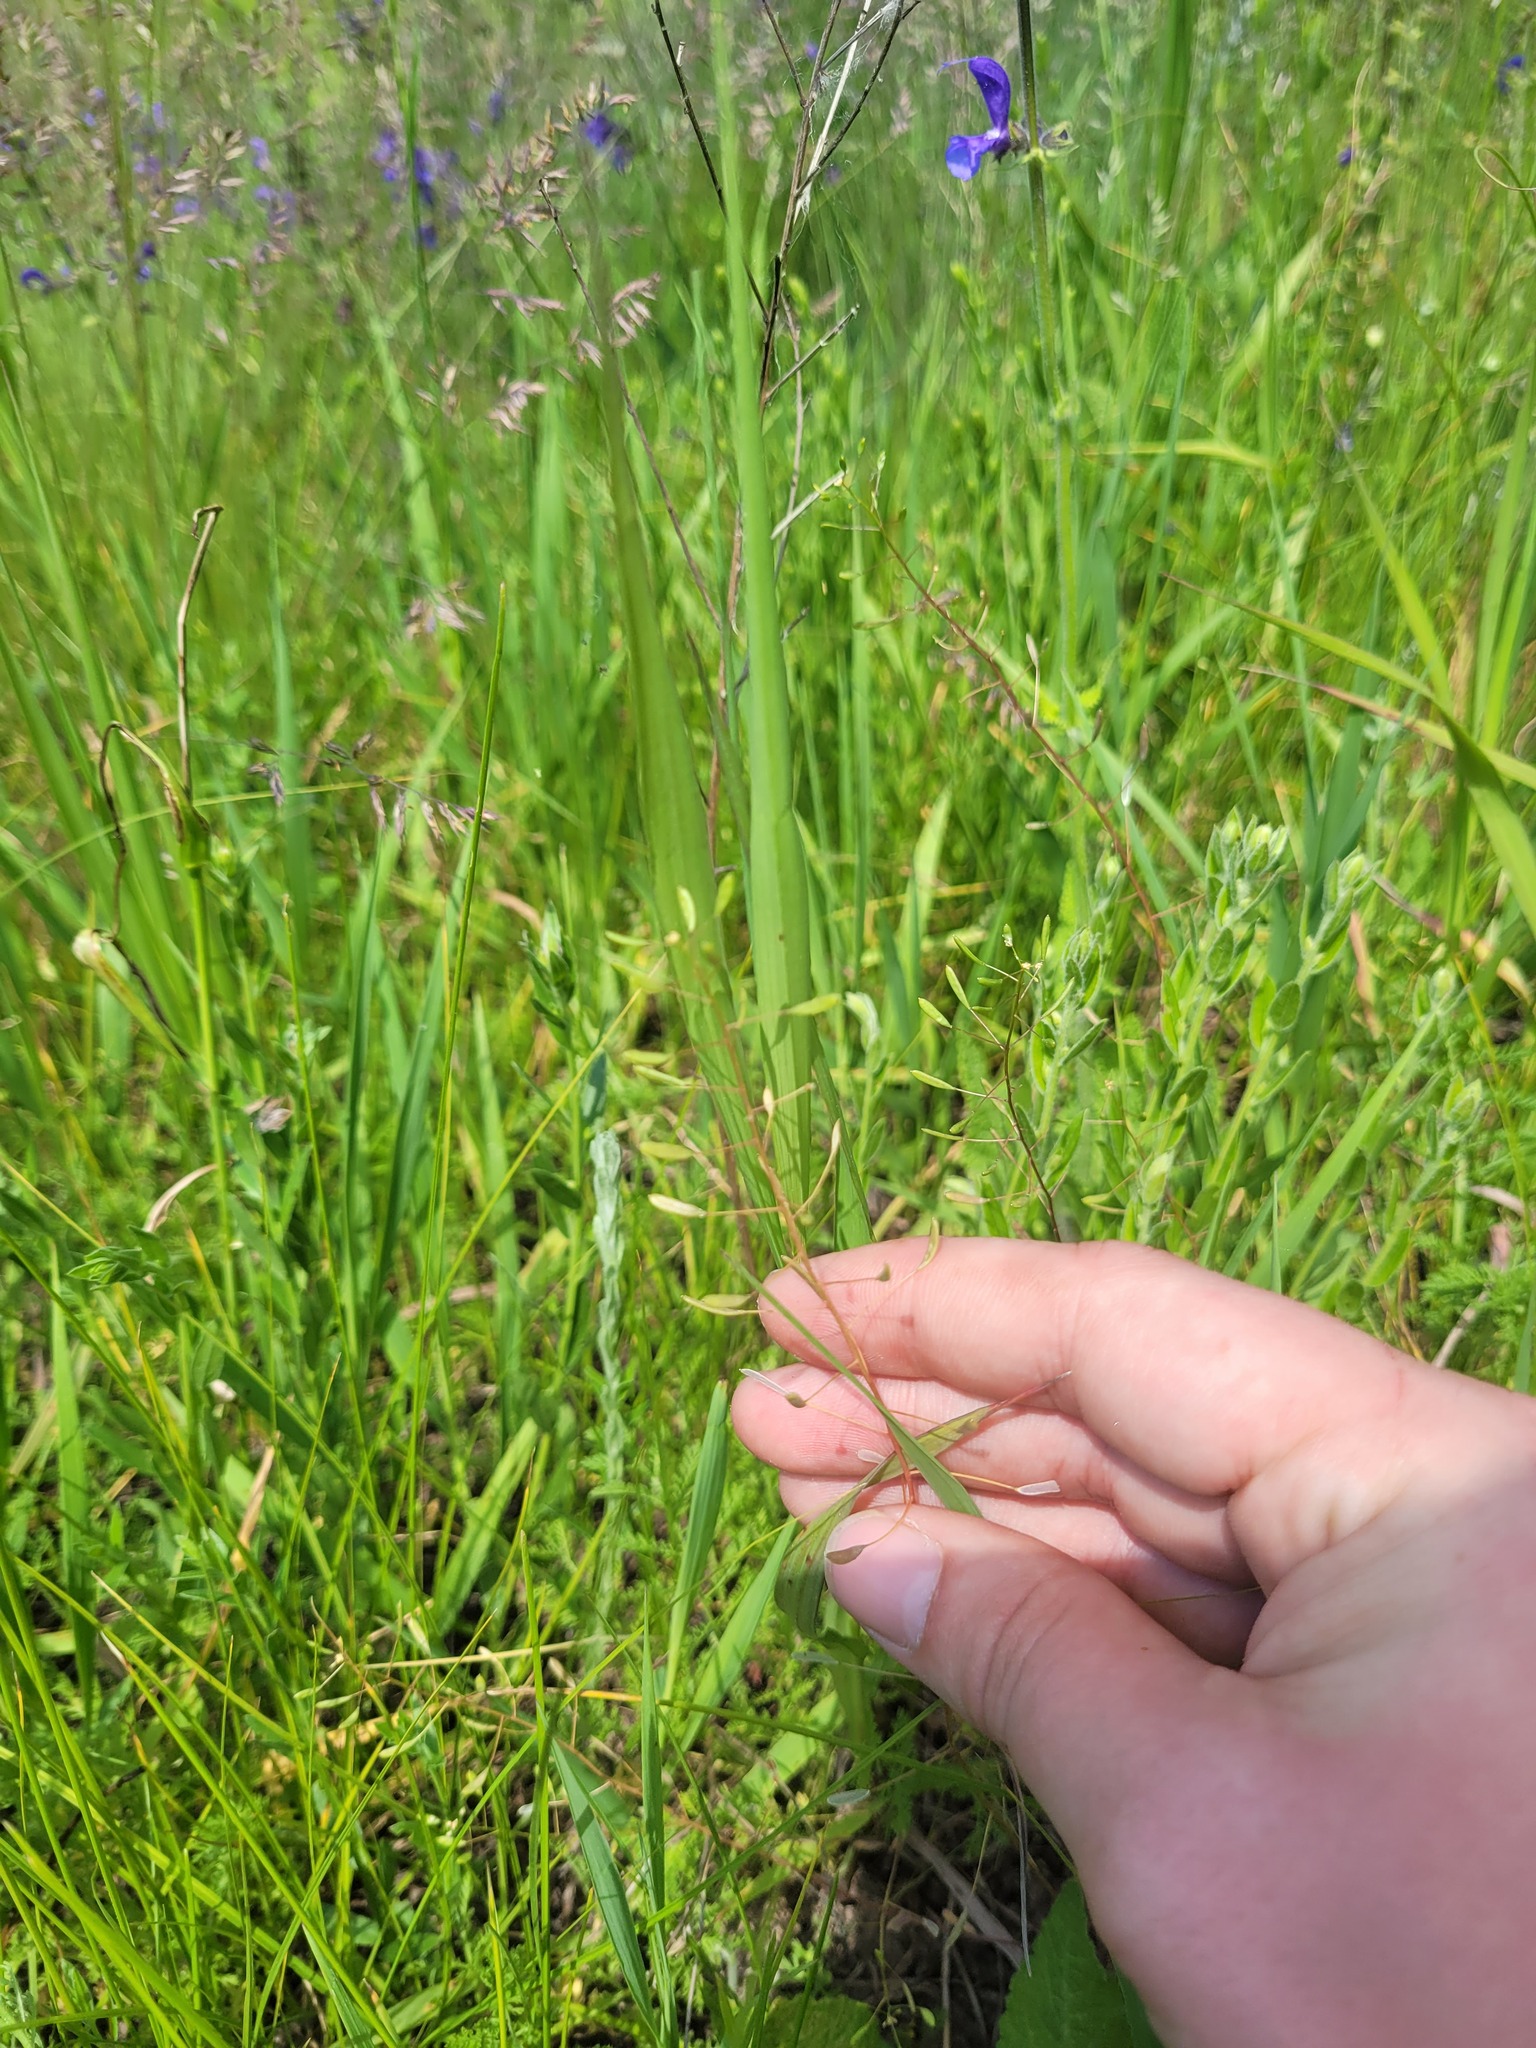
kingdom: Plantae
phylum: Tracheophyta
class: Magnoliopsida
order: Brassicales
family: Brassicaceae
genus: Draba
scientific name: Draba nemorosa
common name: Wood whitlow-grass
